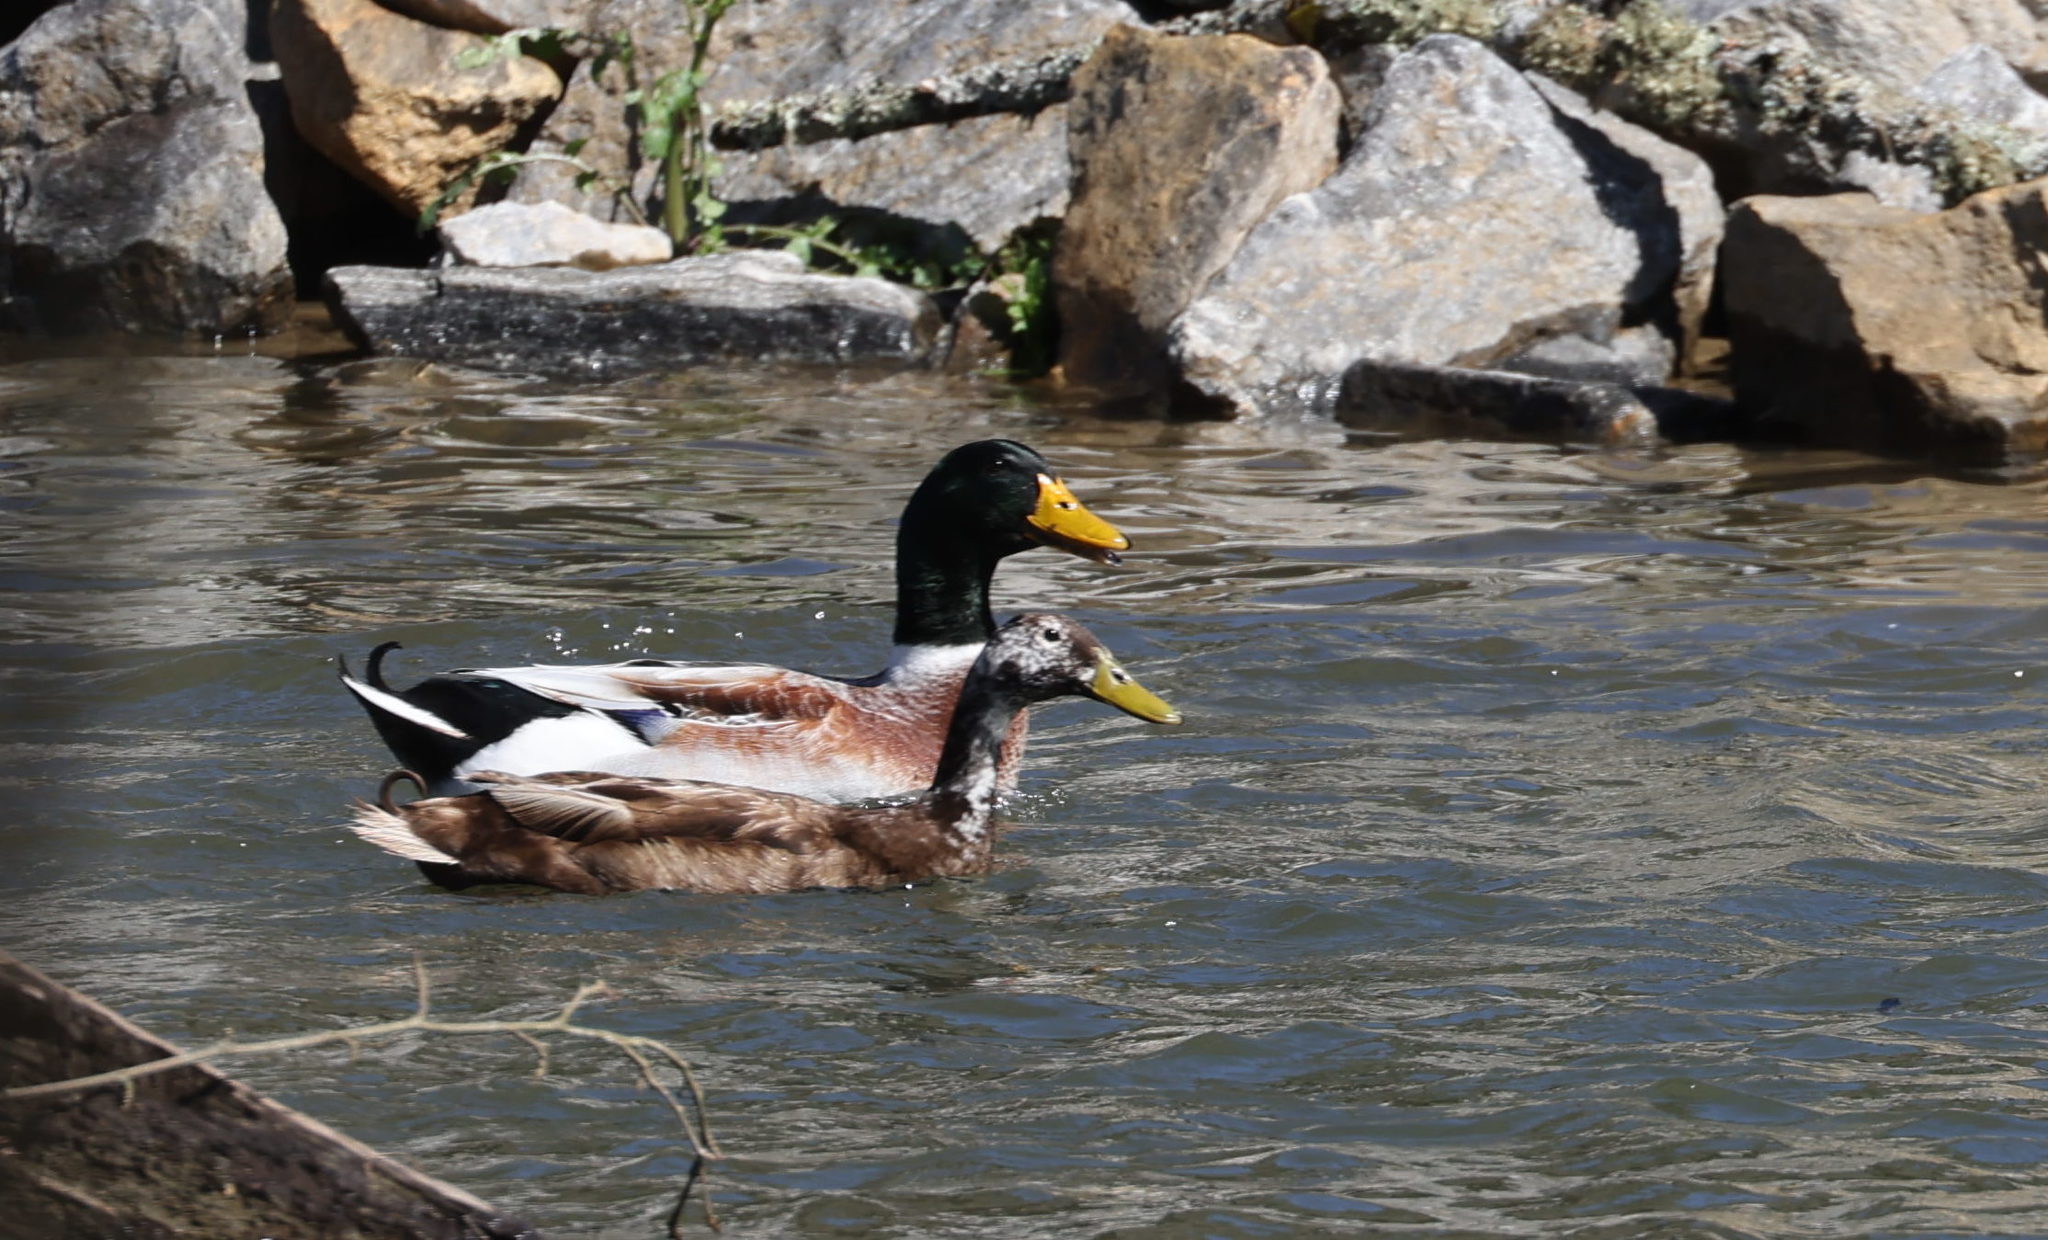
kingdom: Animalia
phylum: Chordata
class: Aves
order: Anseriformes
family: Anatidae
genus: Anas
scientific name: Anas platyrhynchos
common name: Mallard
